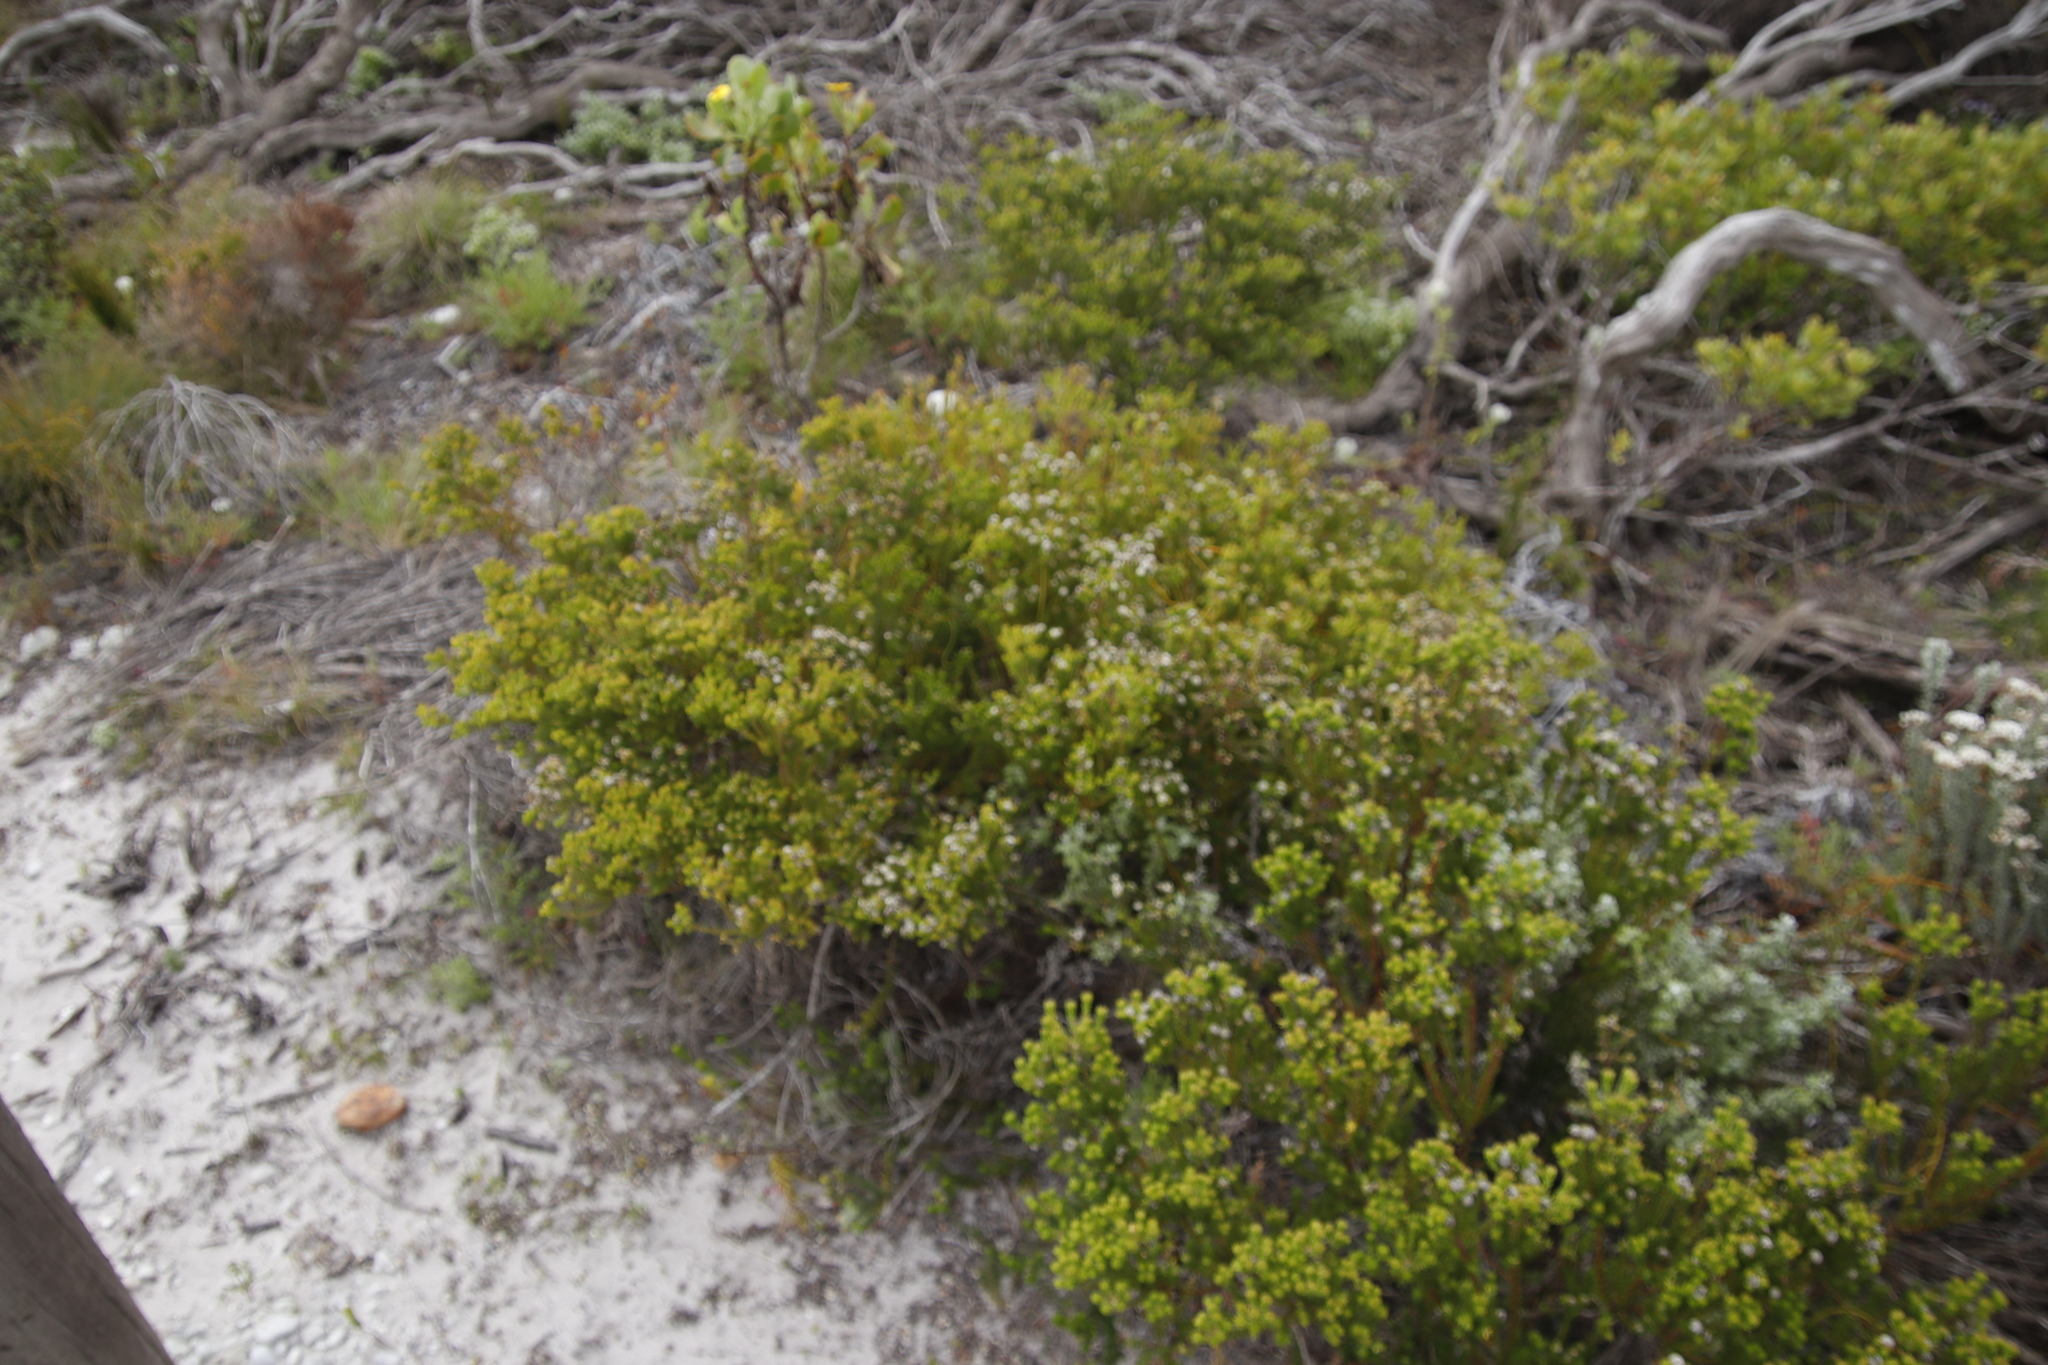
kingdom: Plantae
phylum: Tracheophyta
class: Magnoliopsida
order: Rosales
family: Rhamnaceae
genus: Phylica
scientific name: Phylica ericoides
